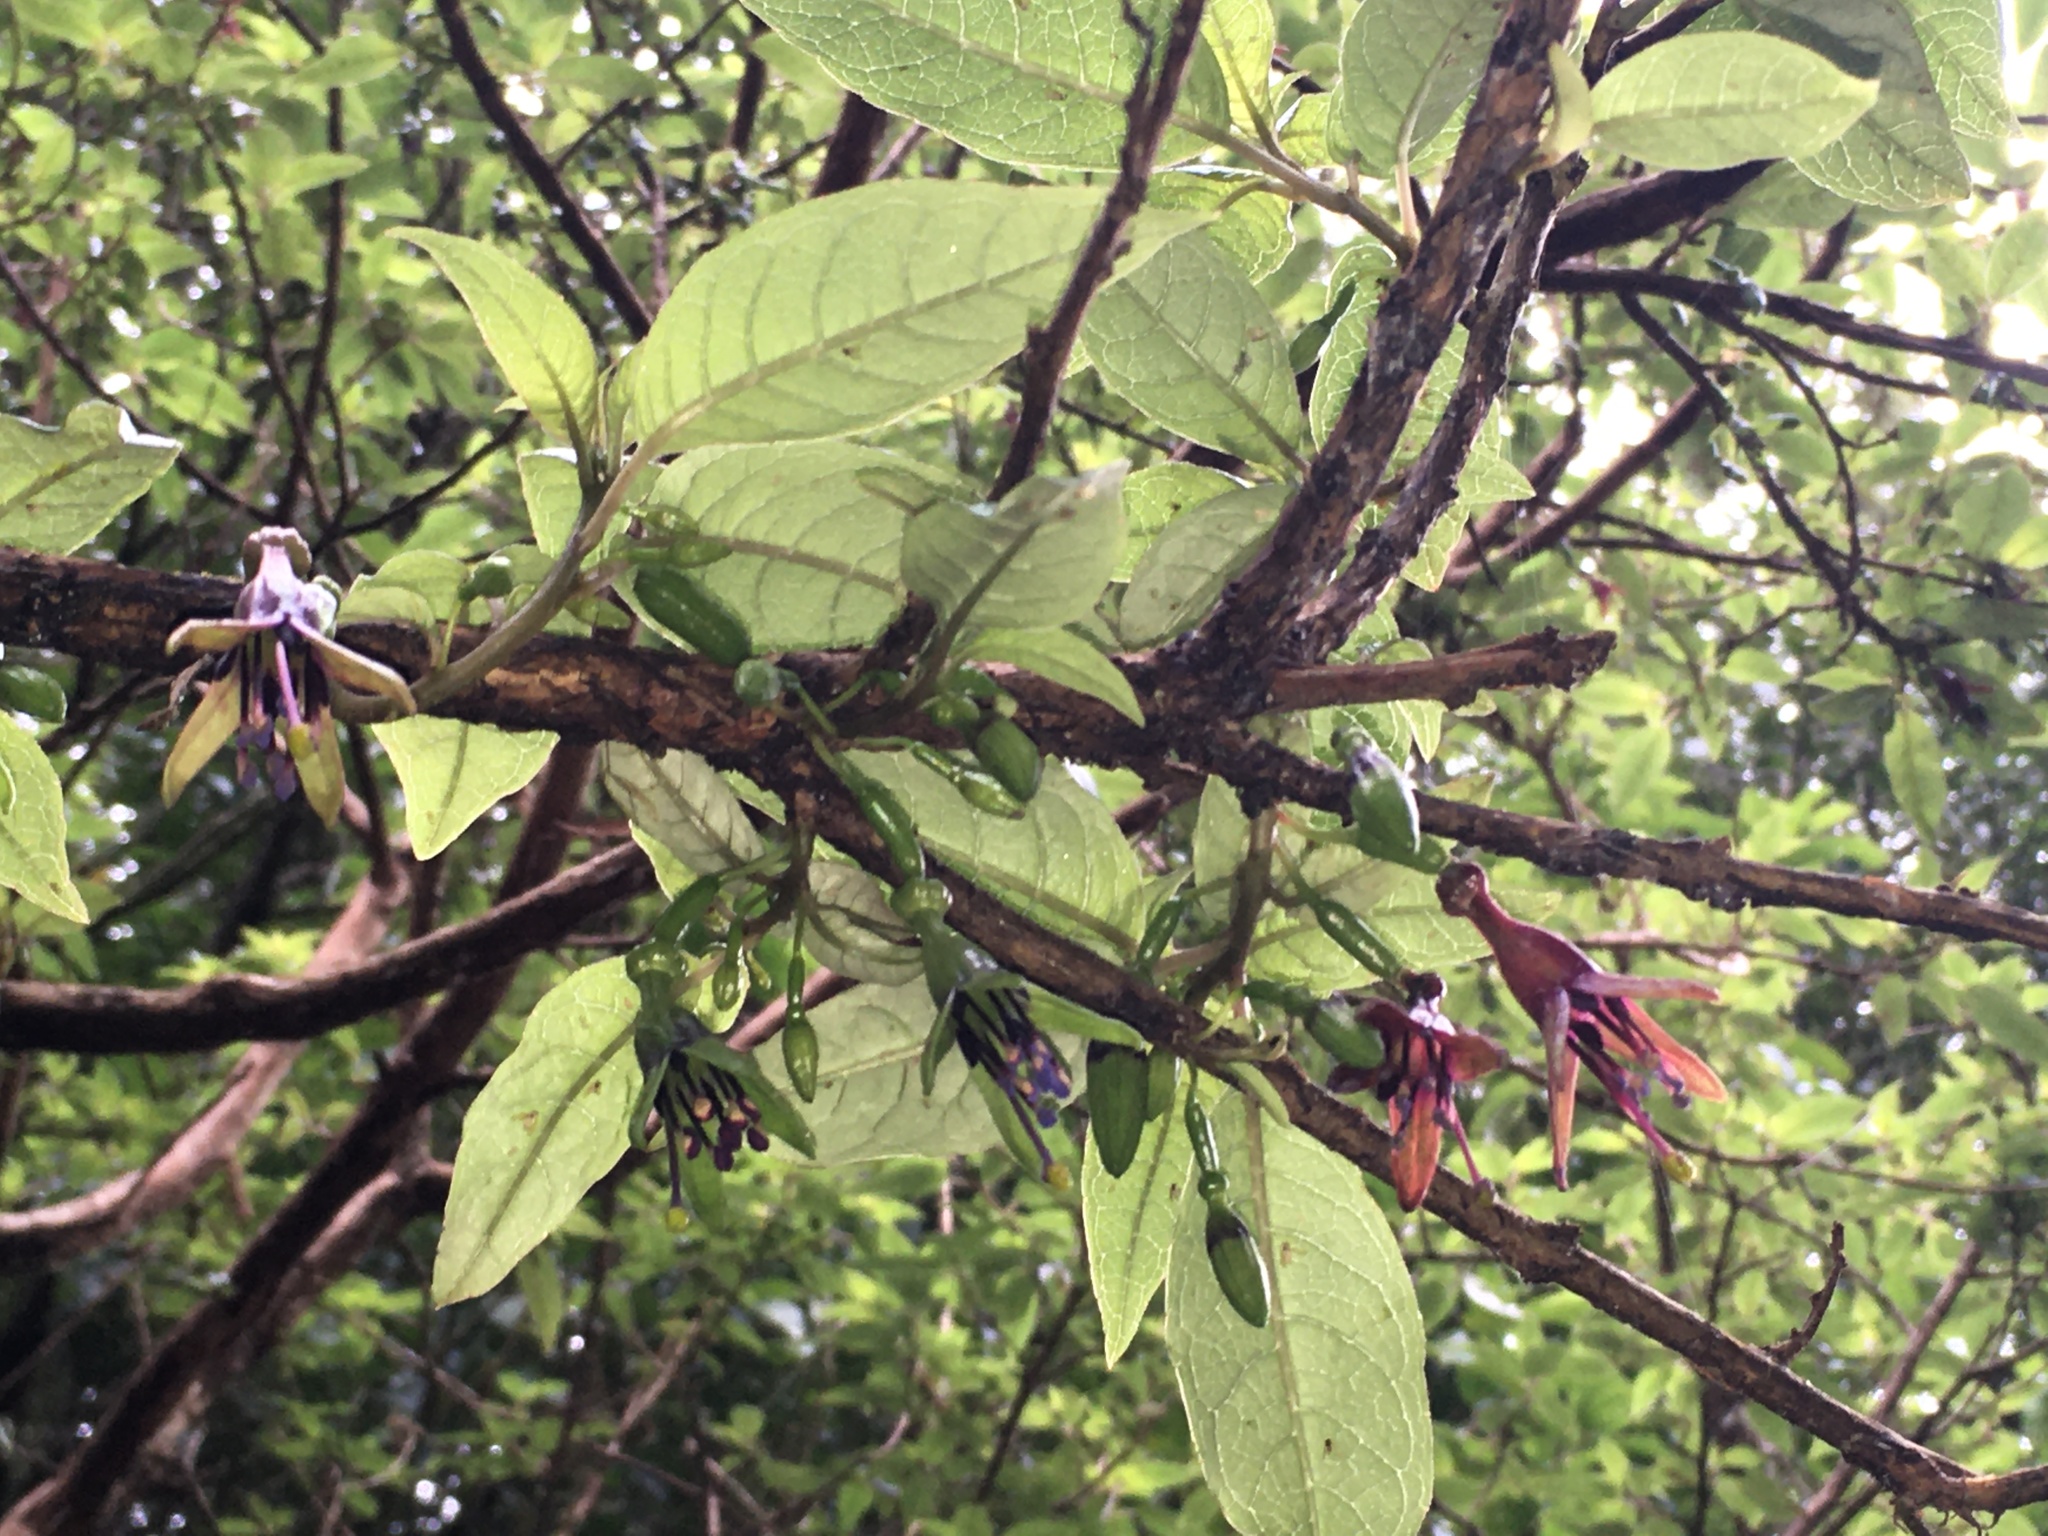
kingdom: Plantae
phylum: Tracheophyta
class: Magnoliopsida
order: Myrtales
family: Onagraceae
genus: Fuchsia
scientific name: Fuchsia excorticata
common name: Tree fuchsia
